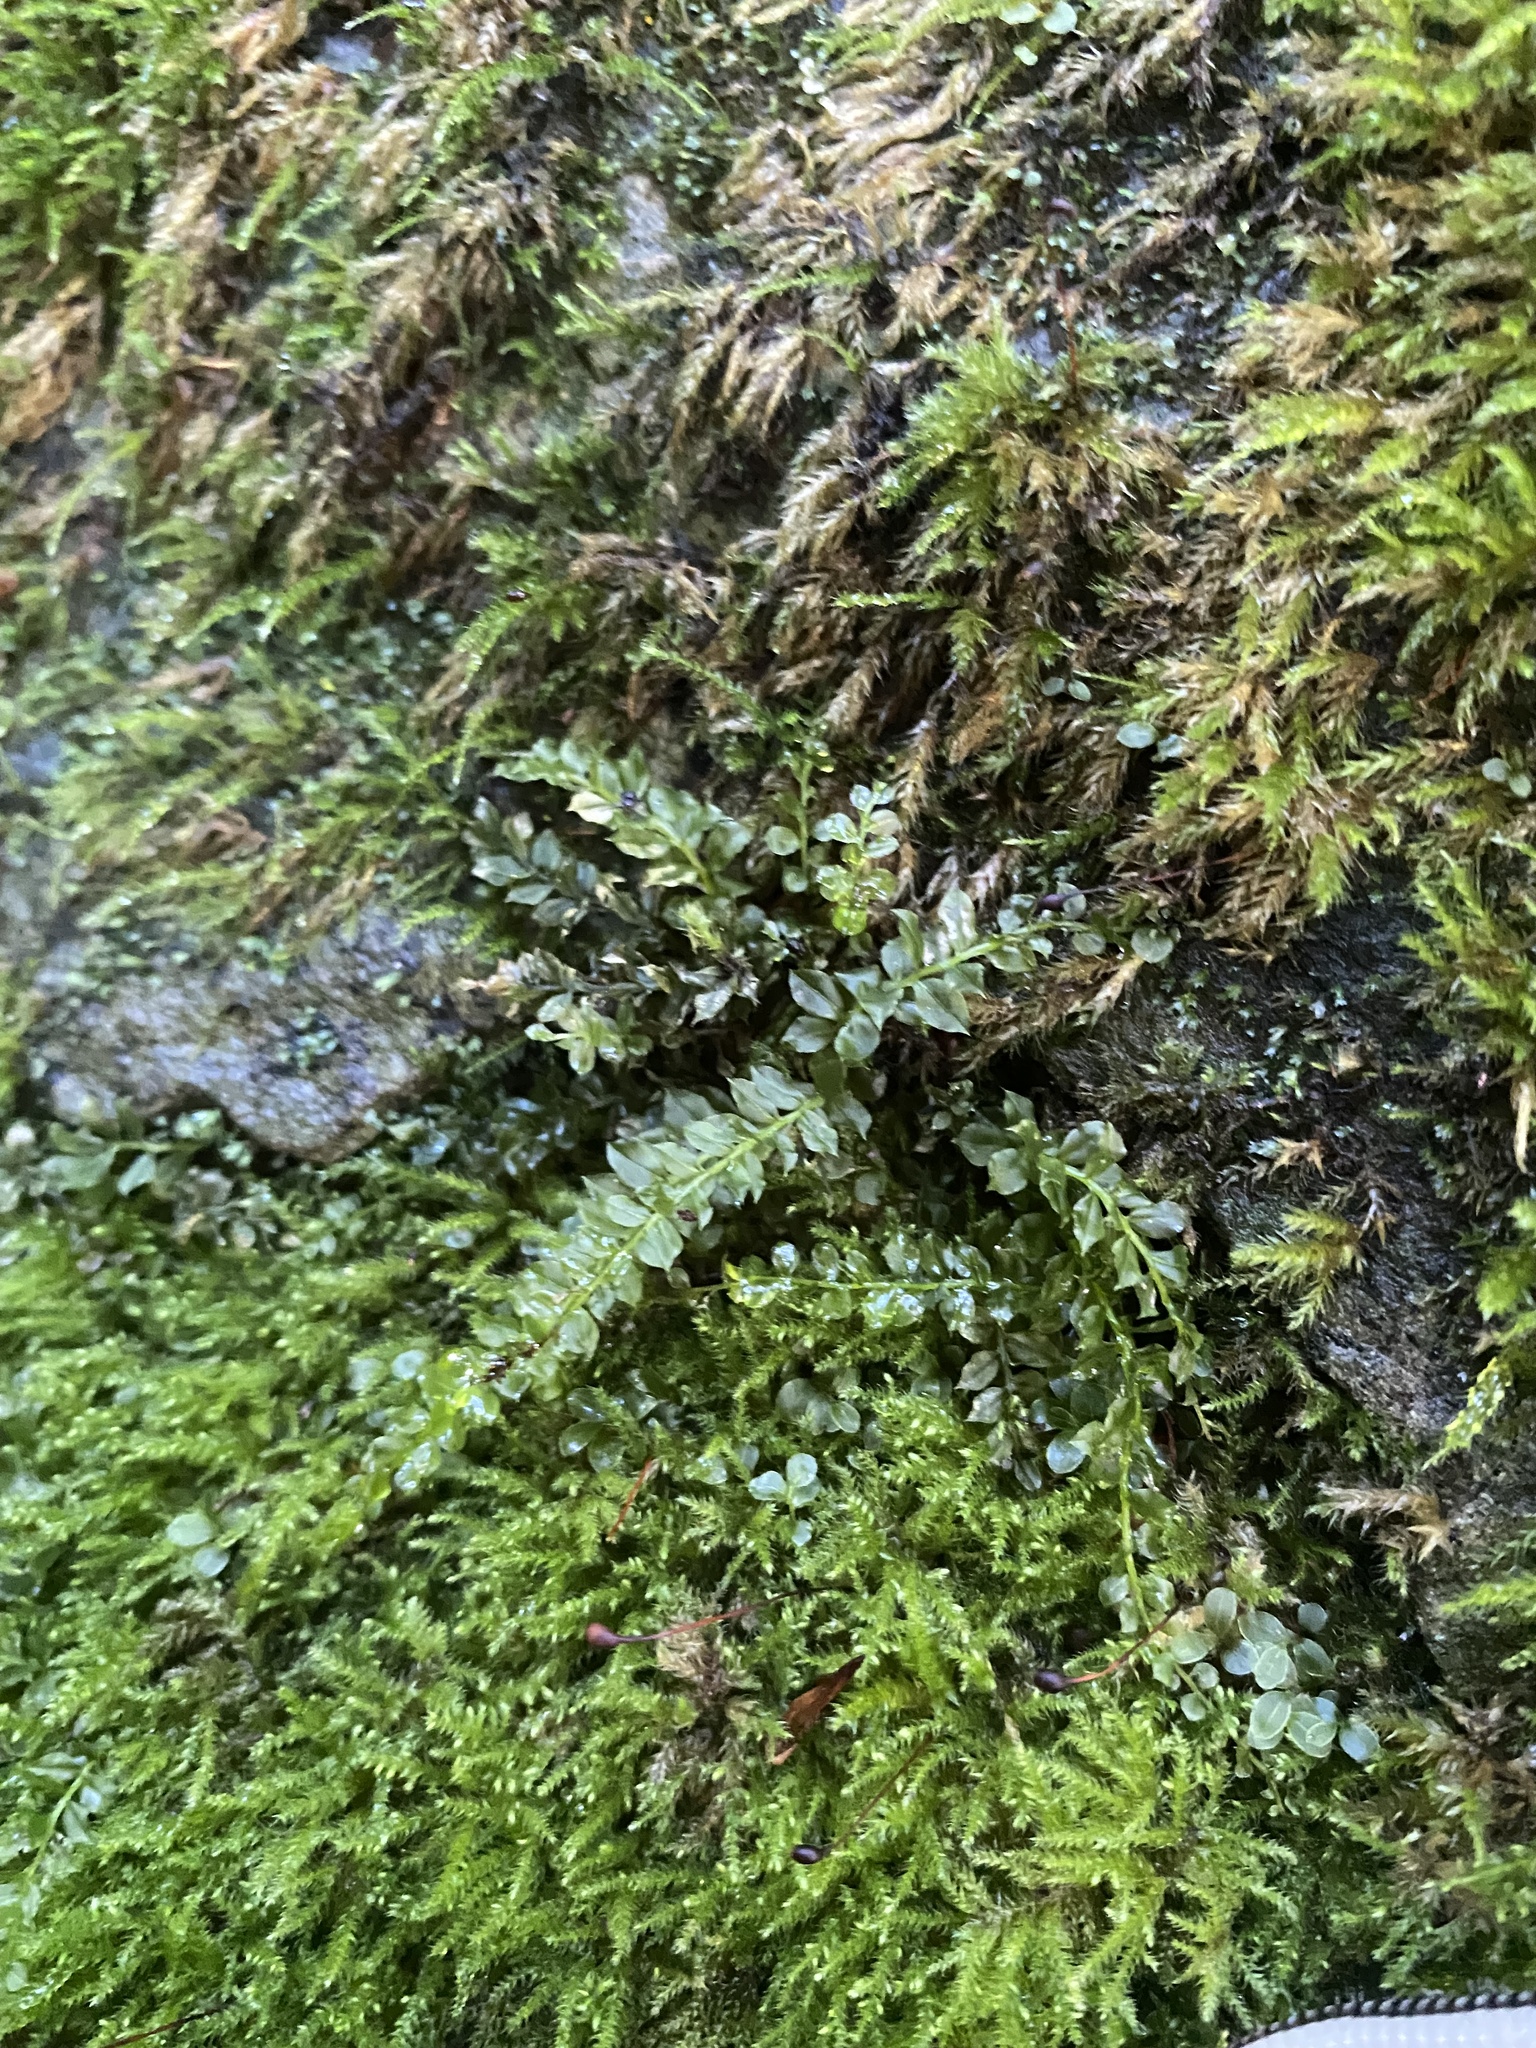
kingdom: Plantae
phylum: Bryophyta
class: Bryopsida
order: Bryales
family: Mniaceae
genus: Plagiomnium
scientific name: Plagiomnium cuspidatum
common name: Woodsy leafy moss
